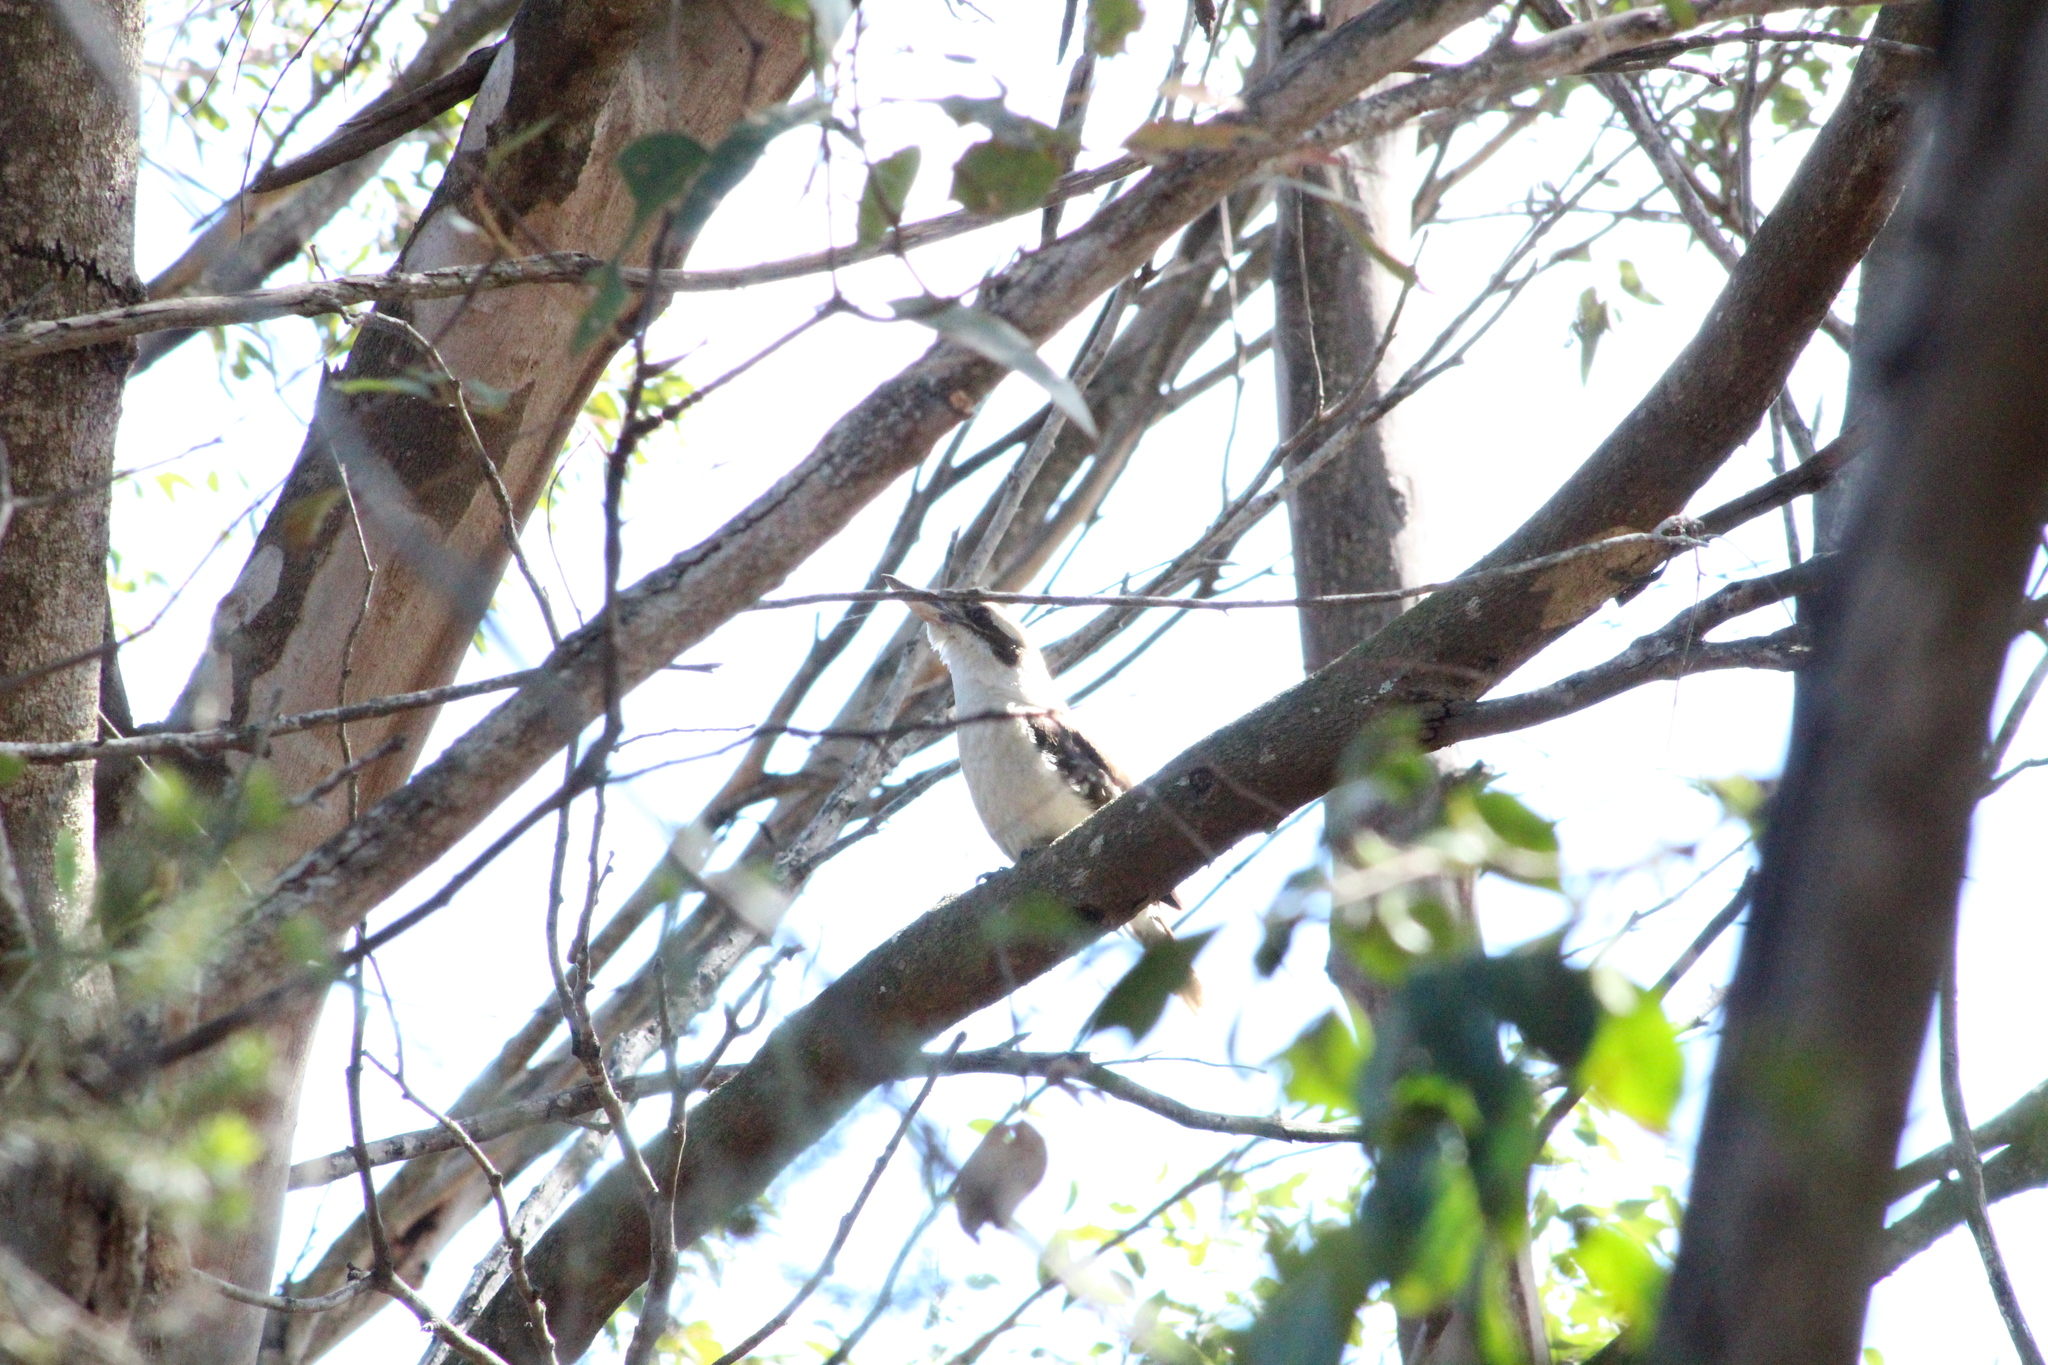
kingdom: Animalia
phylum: Chordata
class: Aves
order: Coraciiformes
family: Alcedinidae
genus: Dacelo
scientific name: Dacelo novaeguineae
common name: Laughing kookaburra
